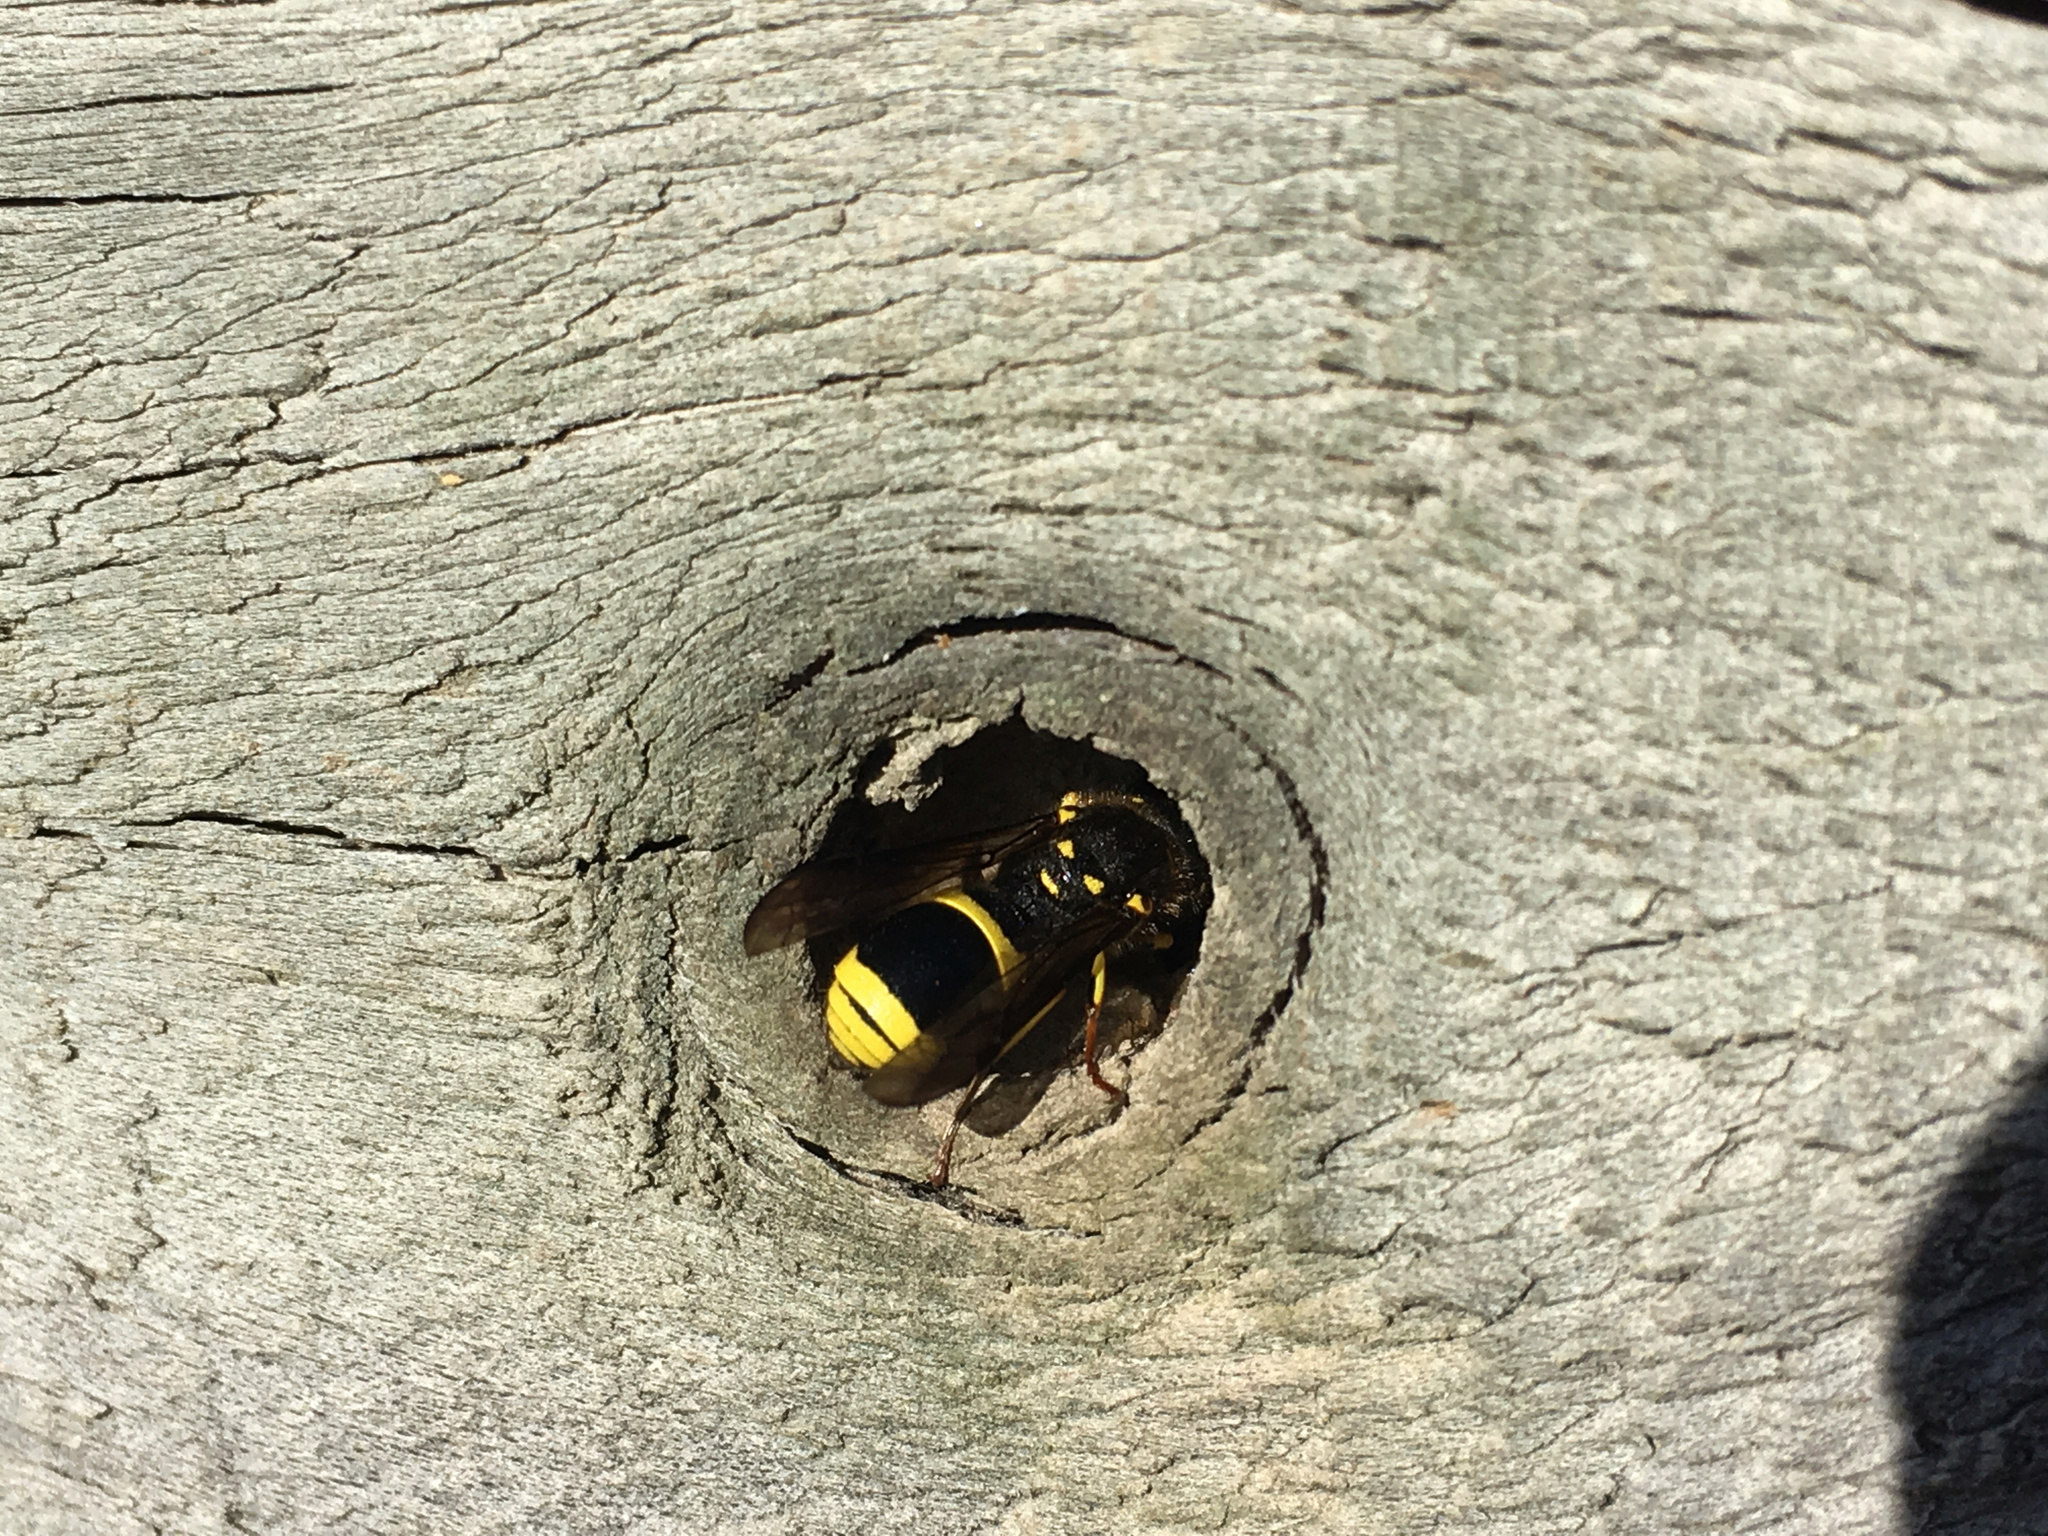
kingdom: Animalia
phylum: Arthropoda
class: Insecta
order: Hymenoptera
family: Vespidae
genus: Ancistrocerus
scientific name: Ancistrocerus gazella
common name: European tube wasp
